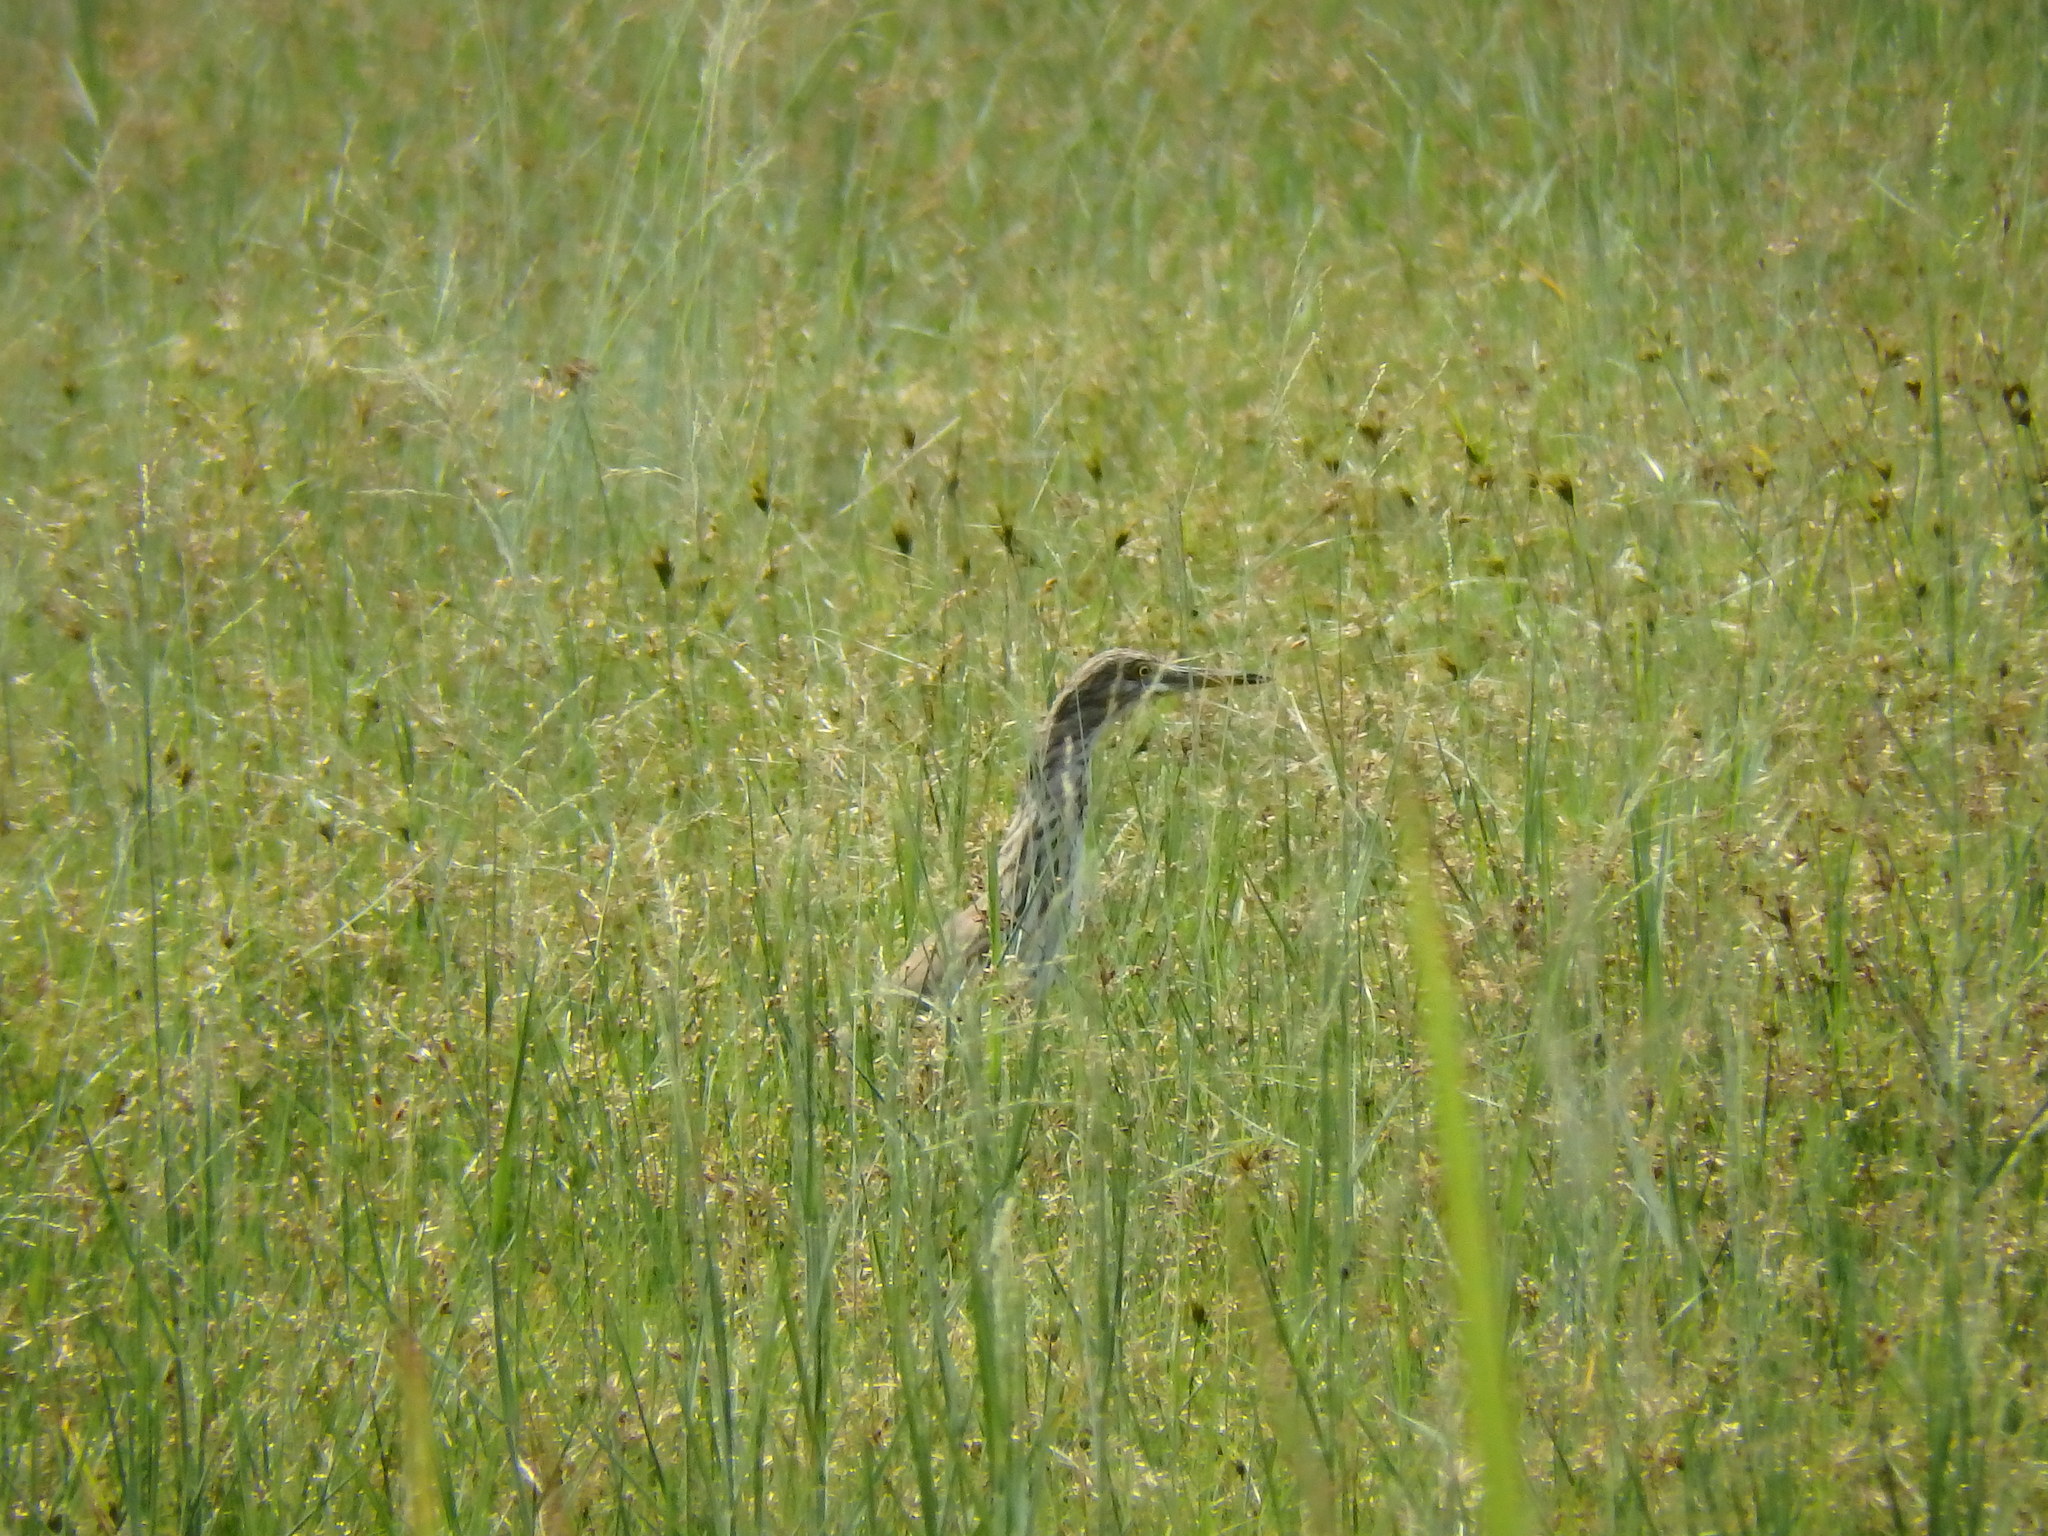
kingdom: Animalia
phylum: Chordata
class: Aves
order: Pelecaniformes
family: Ardeidae
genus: Ardeola
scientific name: Ardeola
